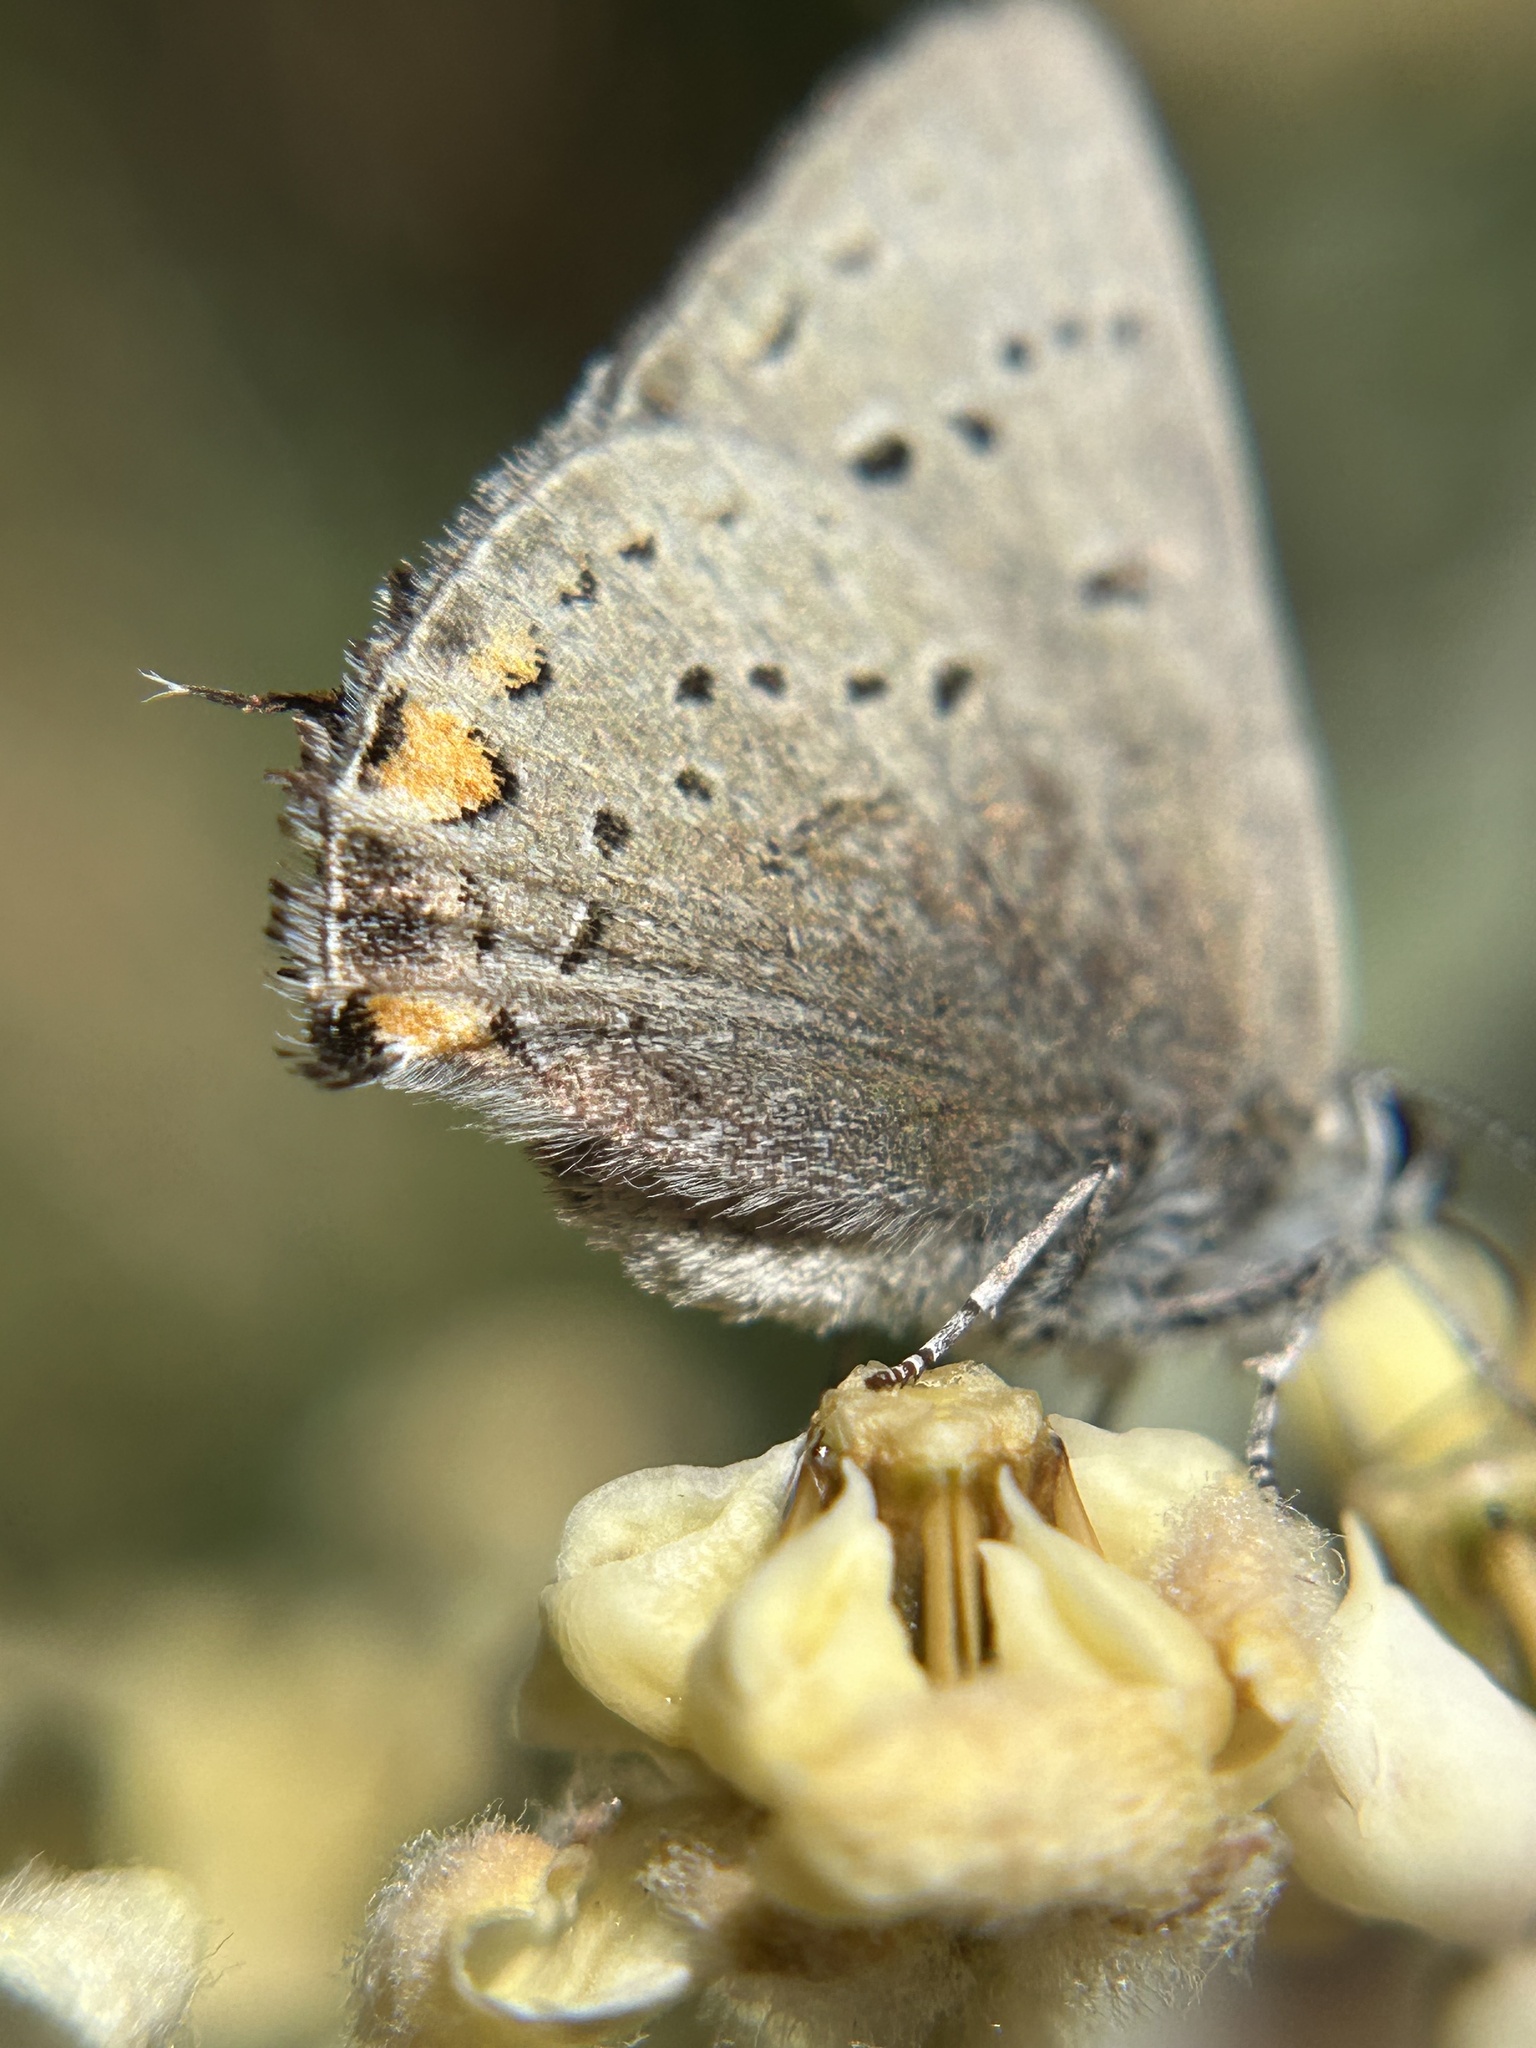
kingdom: Animalia
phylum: Arthropoda
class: Insecta
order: Lepidoptera
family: Lycaenidae
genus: Strymon
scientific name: Strymon acadica
